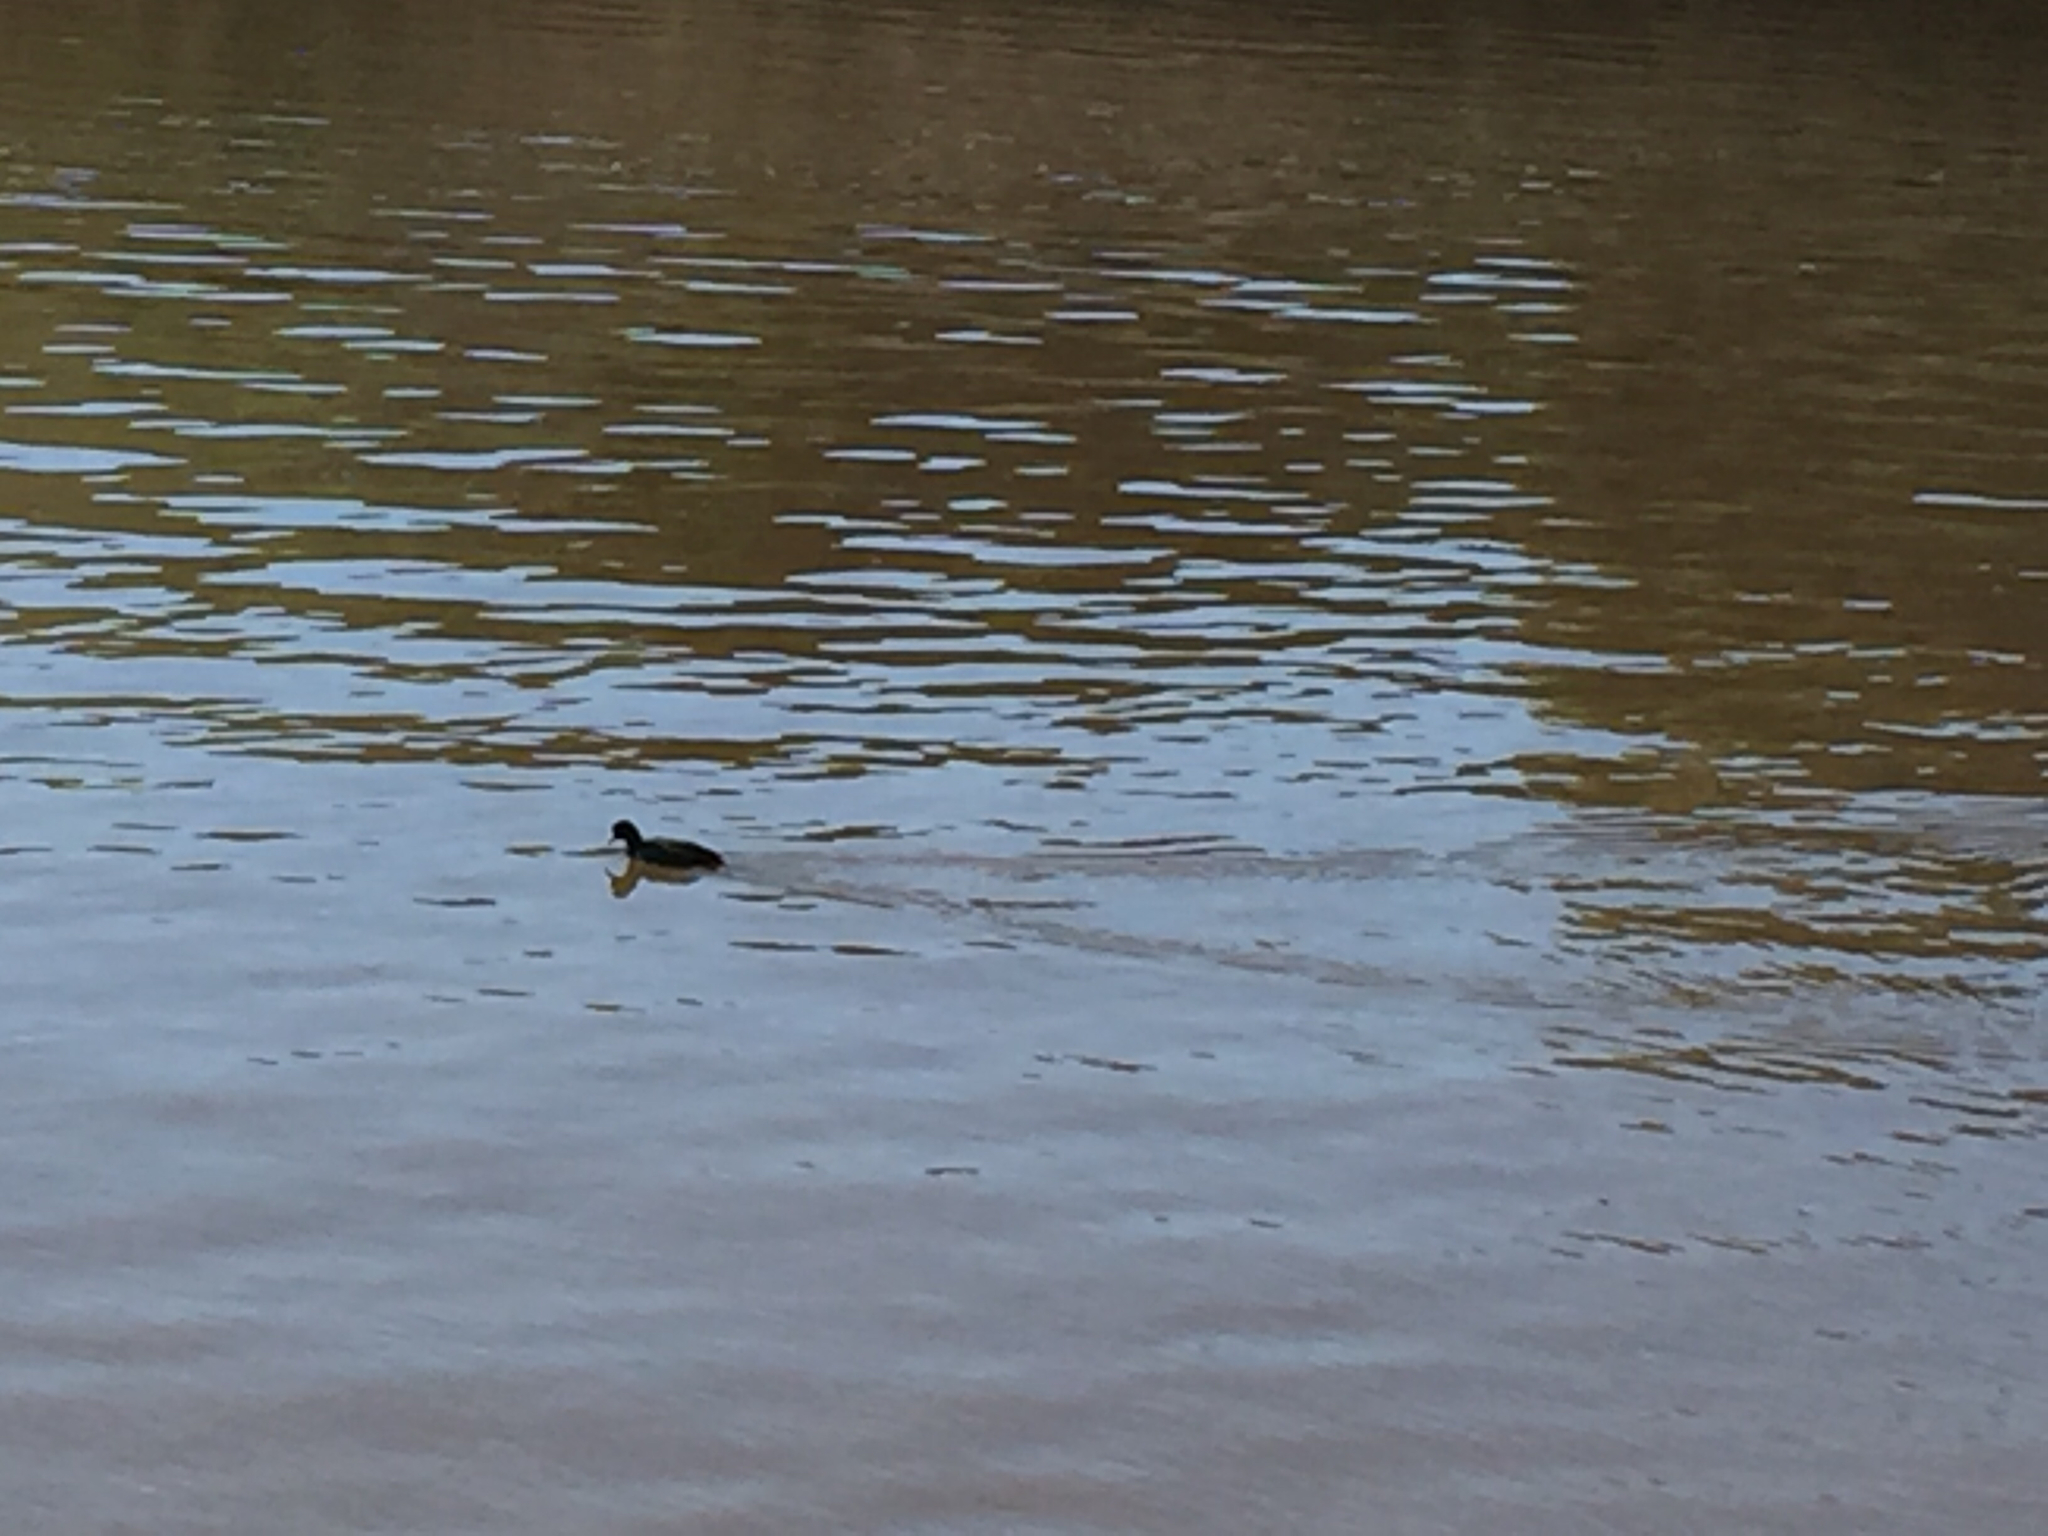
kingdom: Animalia
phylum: Chordata
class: Aves
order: Gruiformes
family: Rallidae
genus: Fulica
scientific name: Fulica americana
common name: American coot
